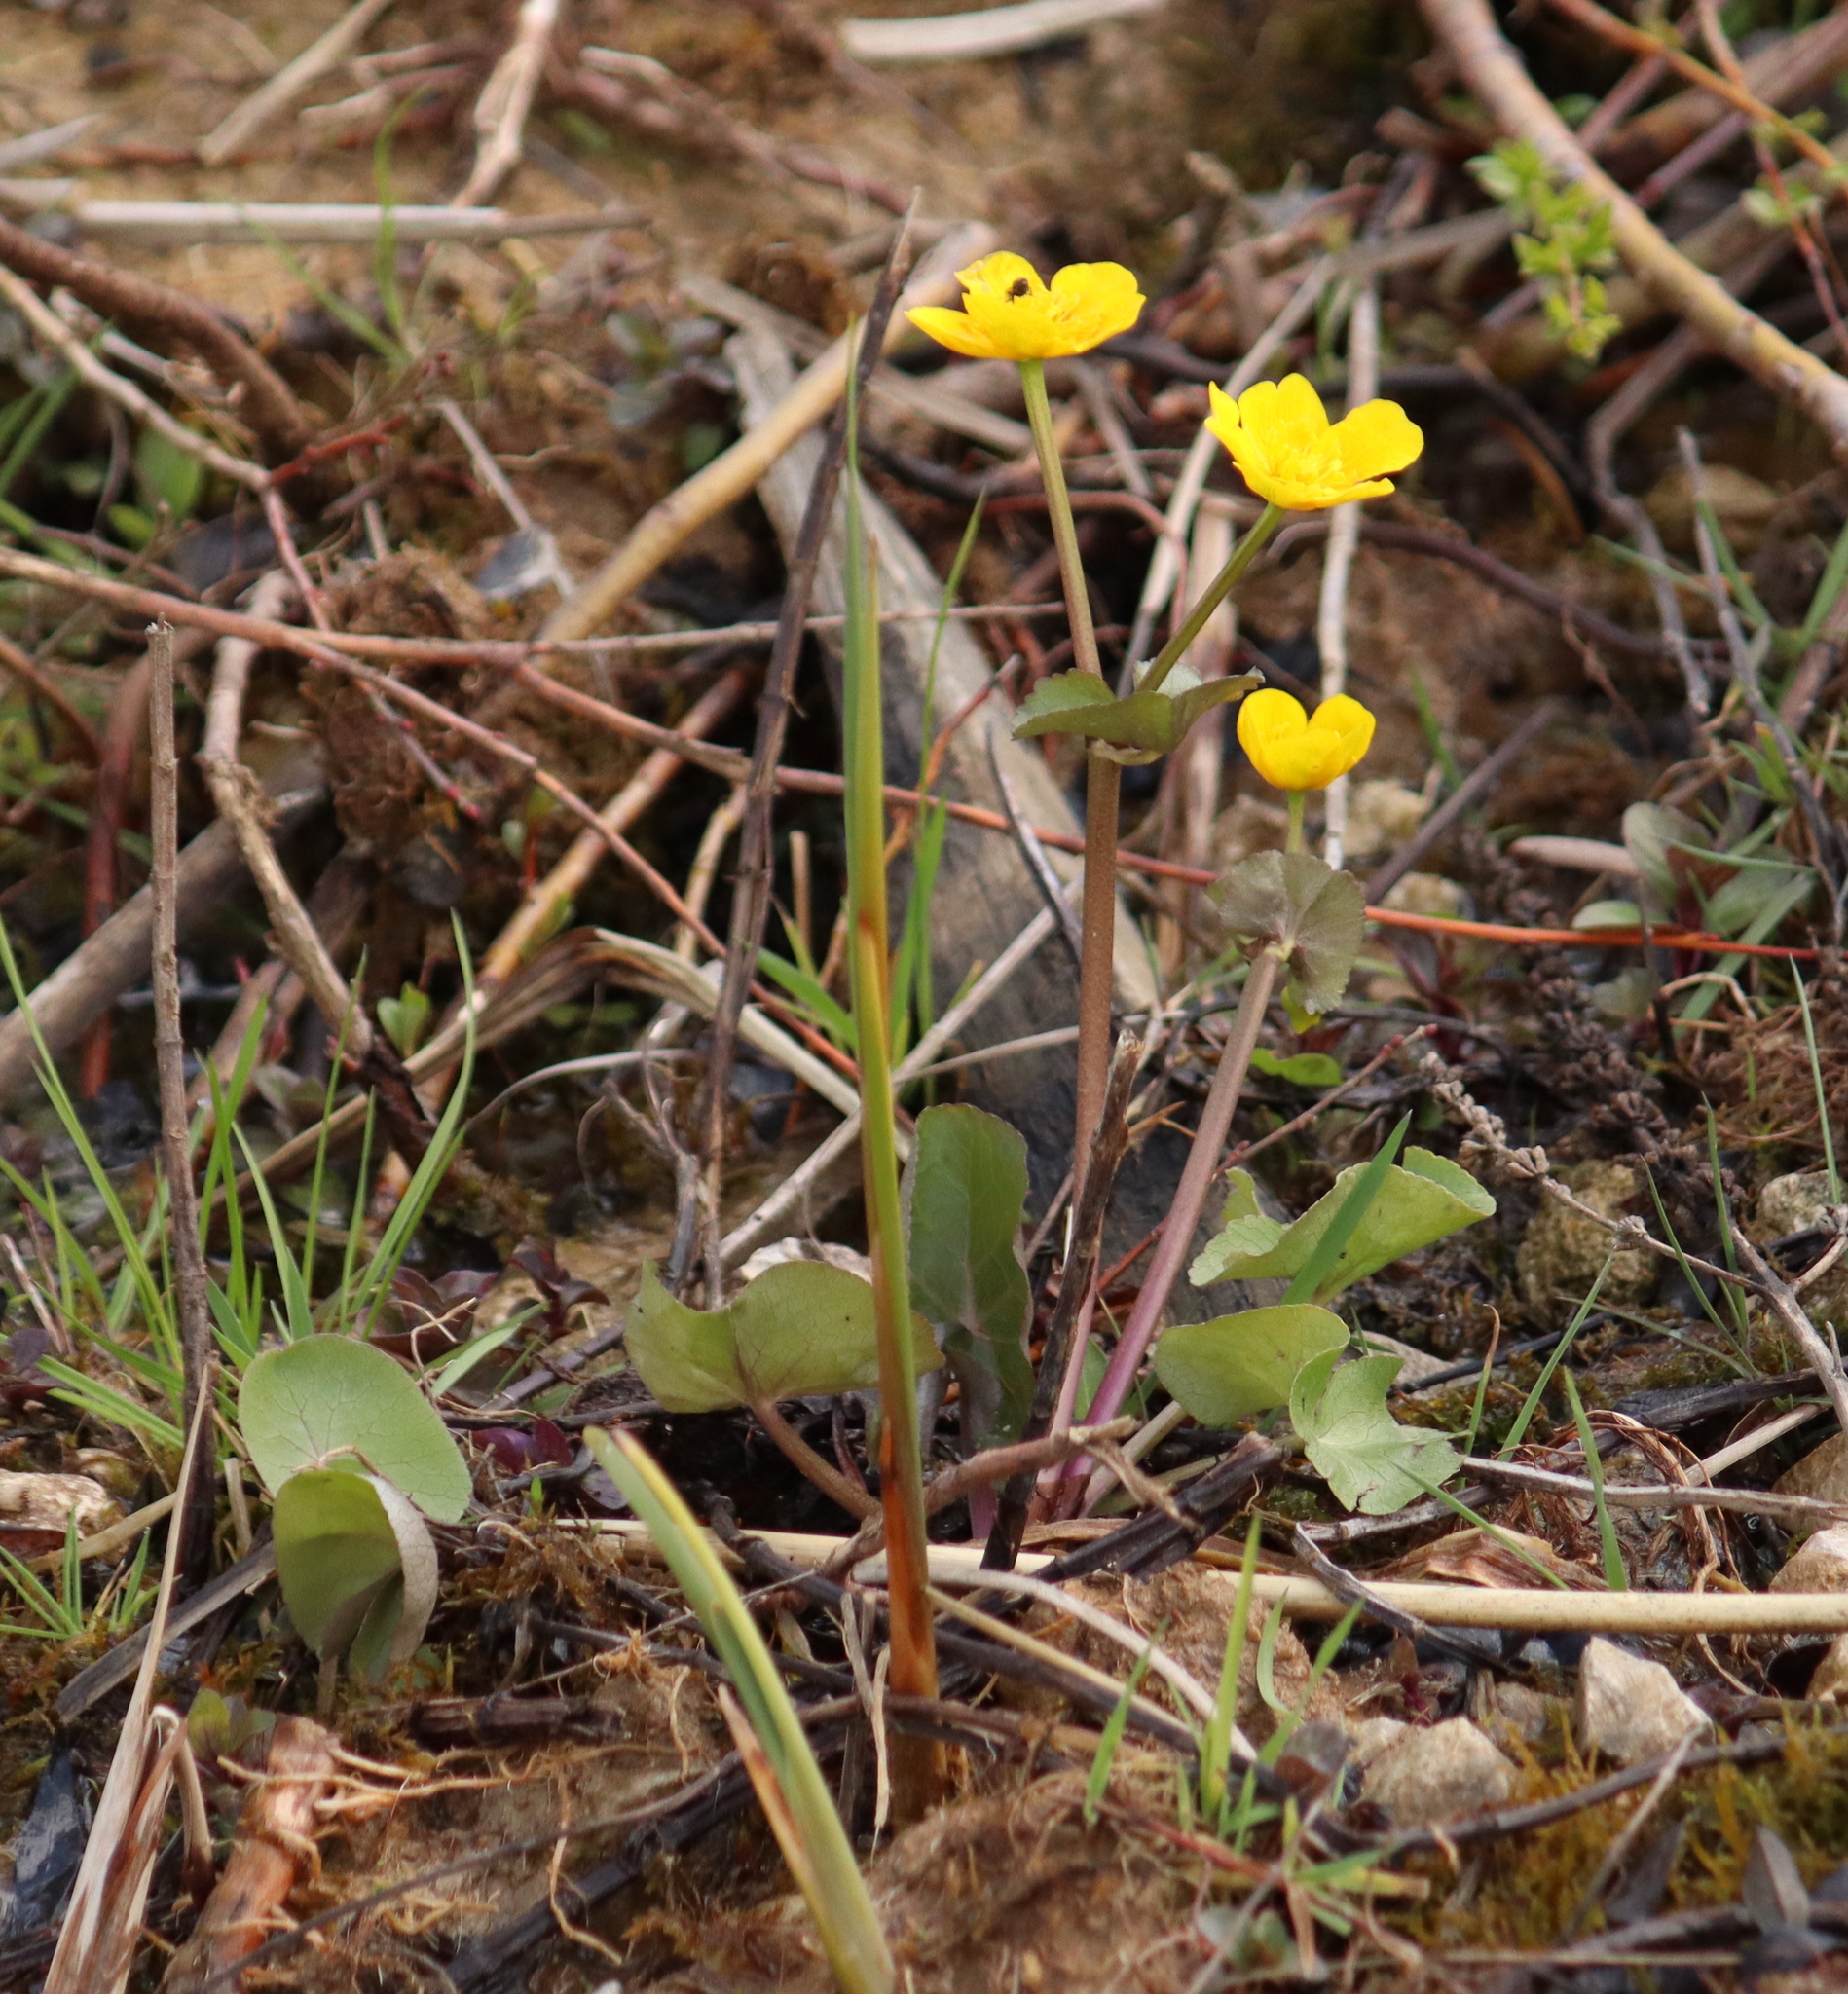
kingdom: Plantae
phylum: Tracheophyta
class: Magnoliopsida
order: Ranunculales
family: Ranunculaceae
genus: Caltha
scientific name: Caltha palustris
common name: Marsh marigold
